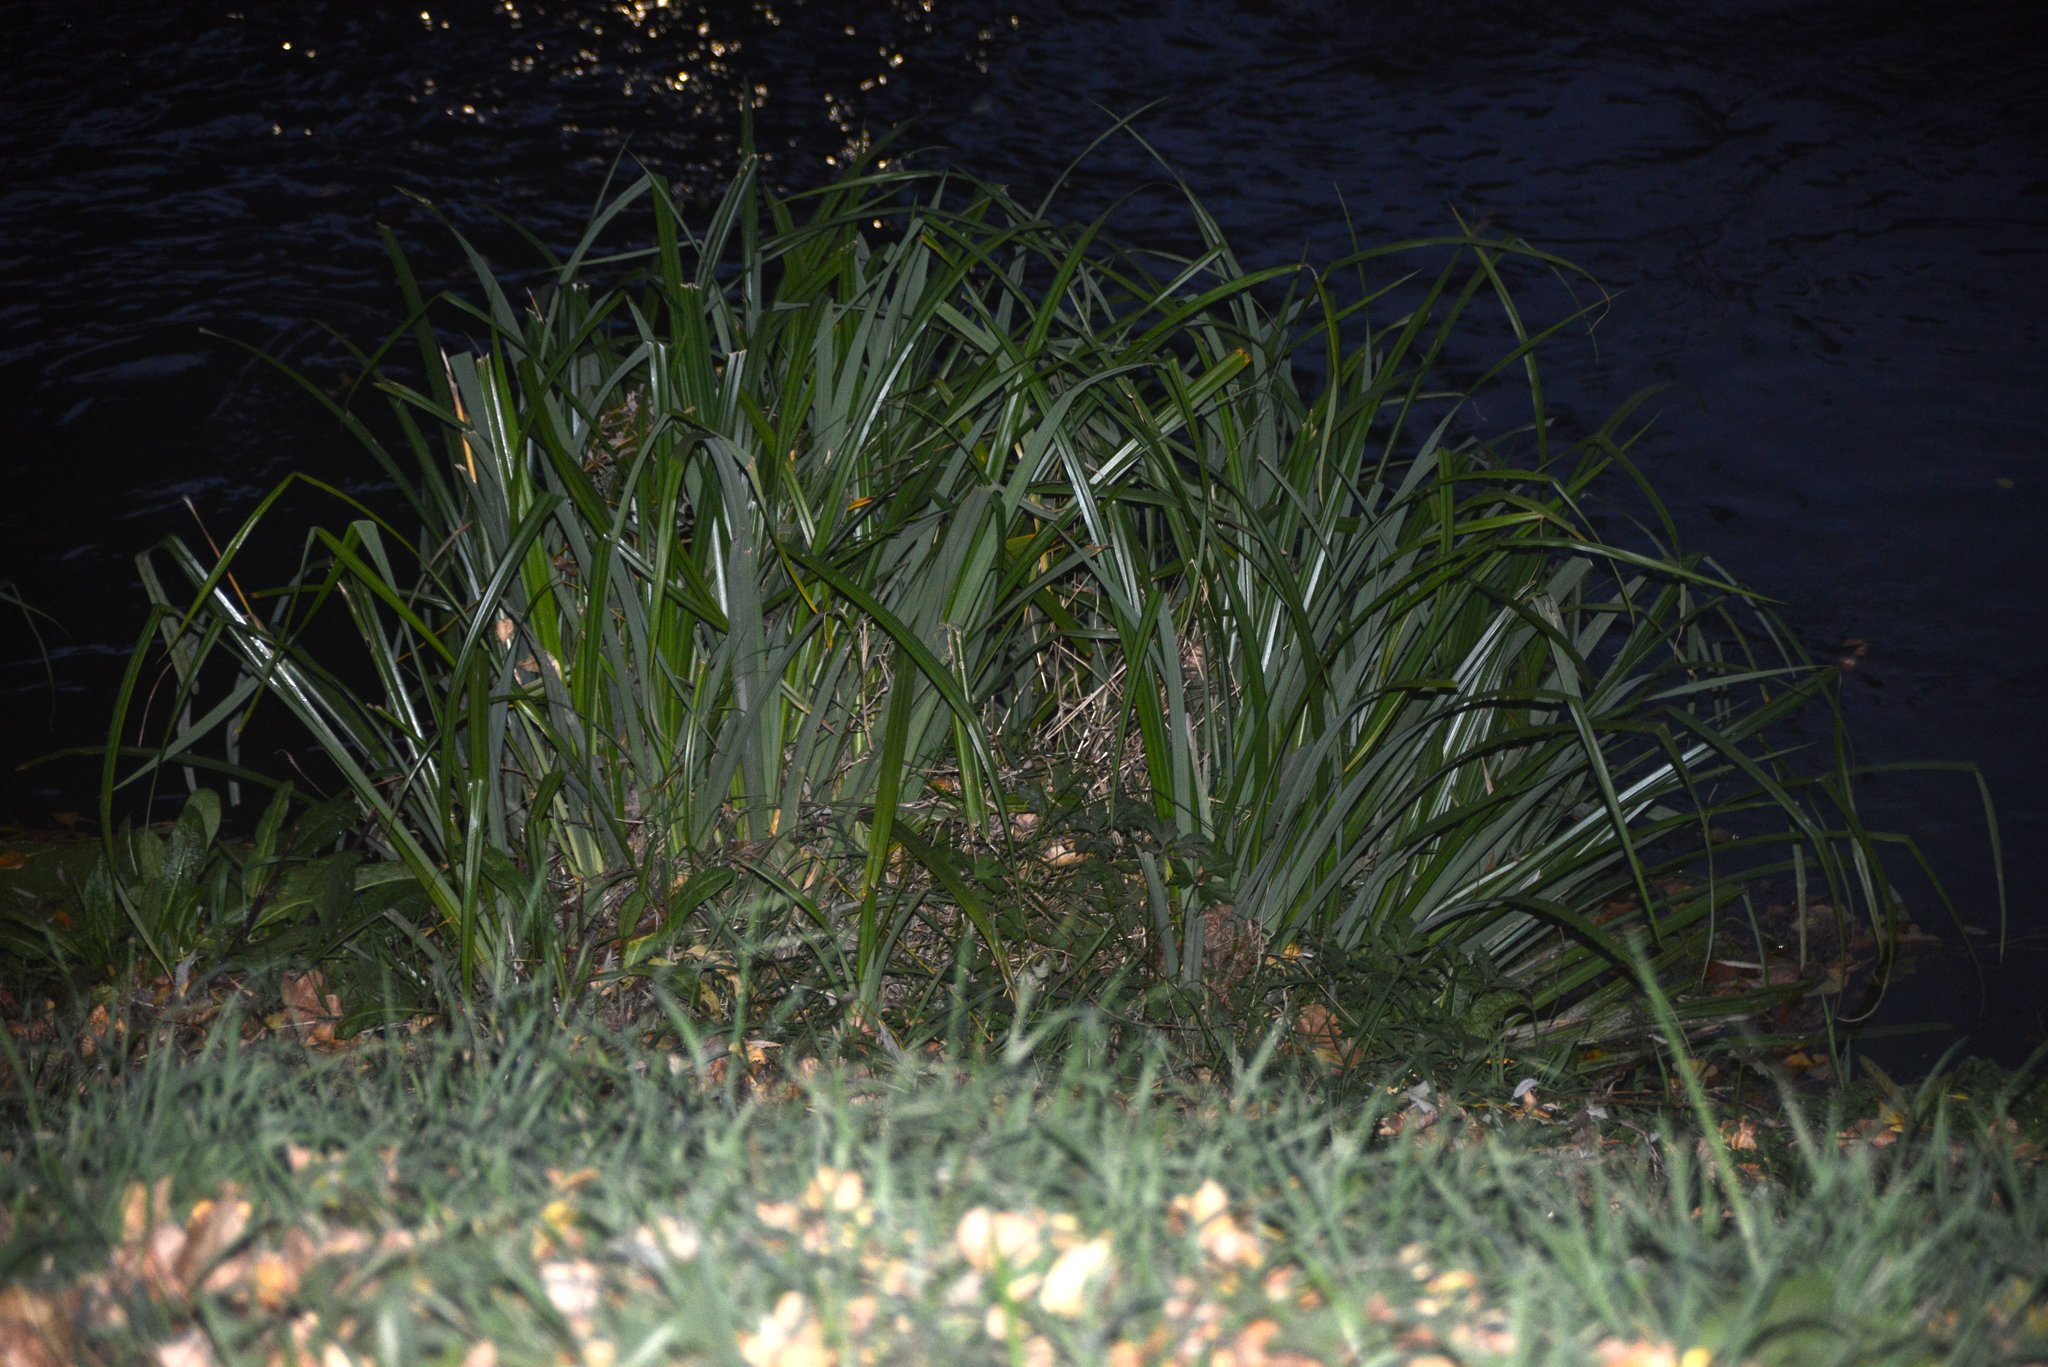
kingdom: Plantae
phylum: Tracheophyta
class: Liliopsida
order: Poales
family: Cyperaceae
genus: Carex
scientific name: Carex pendula
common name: Pendulous sedge
